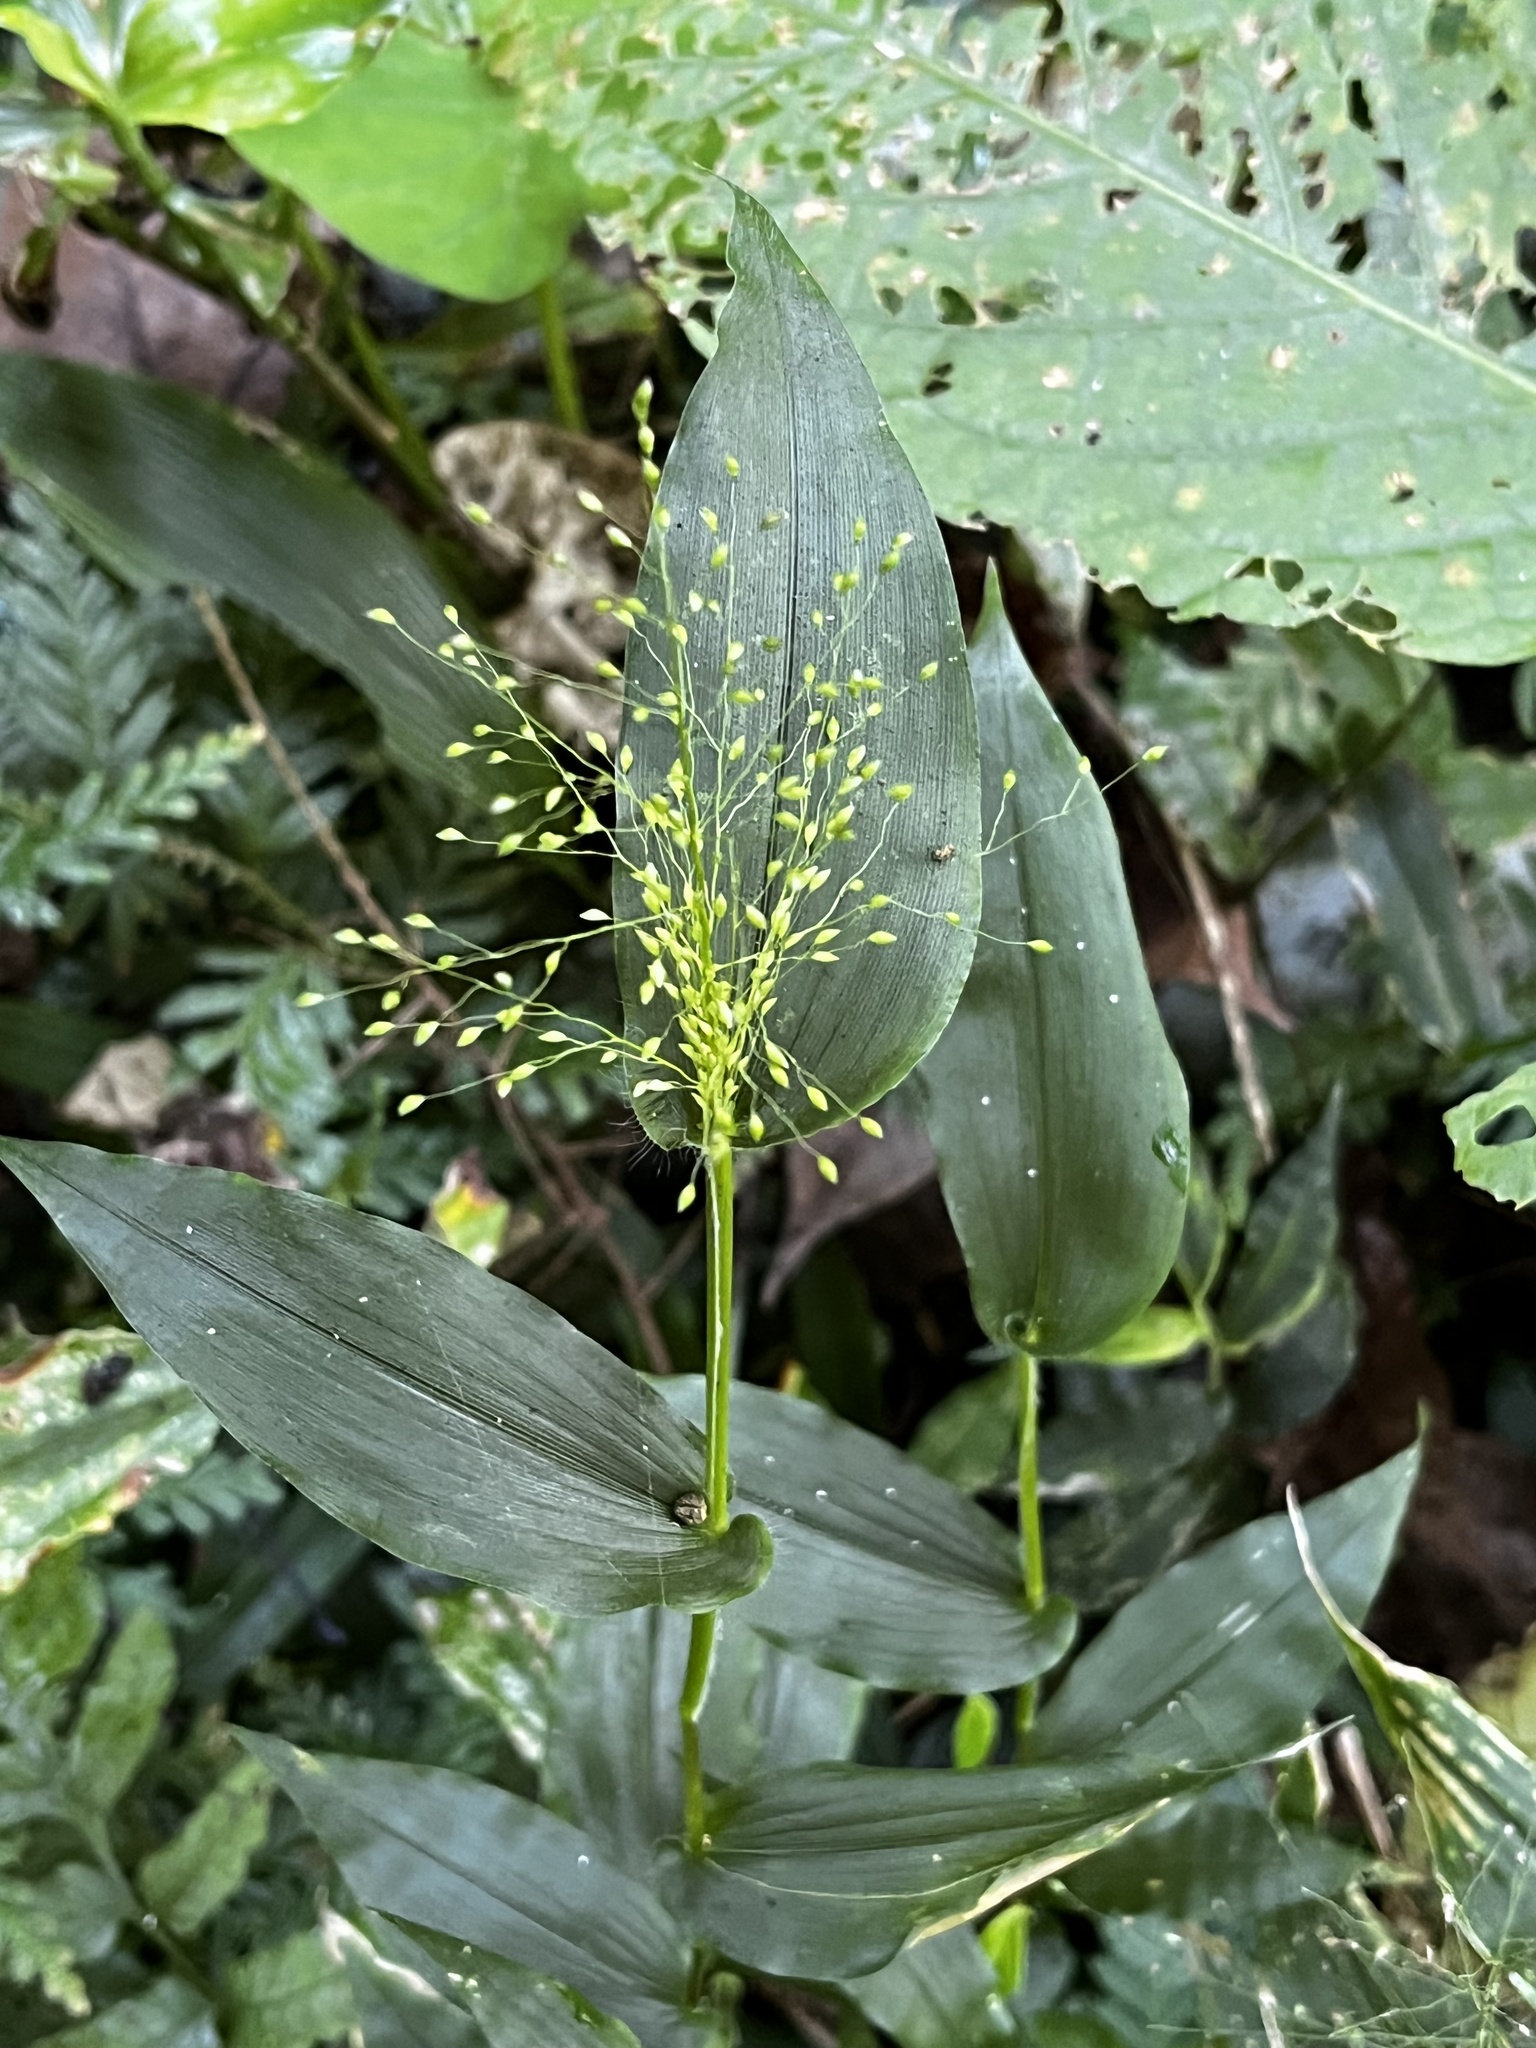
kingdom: Plantae
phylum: Tracheophyta
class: Liliopsida
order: Poales
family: Poaceae
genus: Panicum
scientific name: Panicum brevifolium
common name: Shortleaf panic grass
